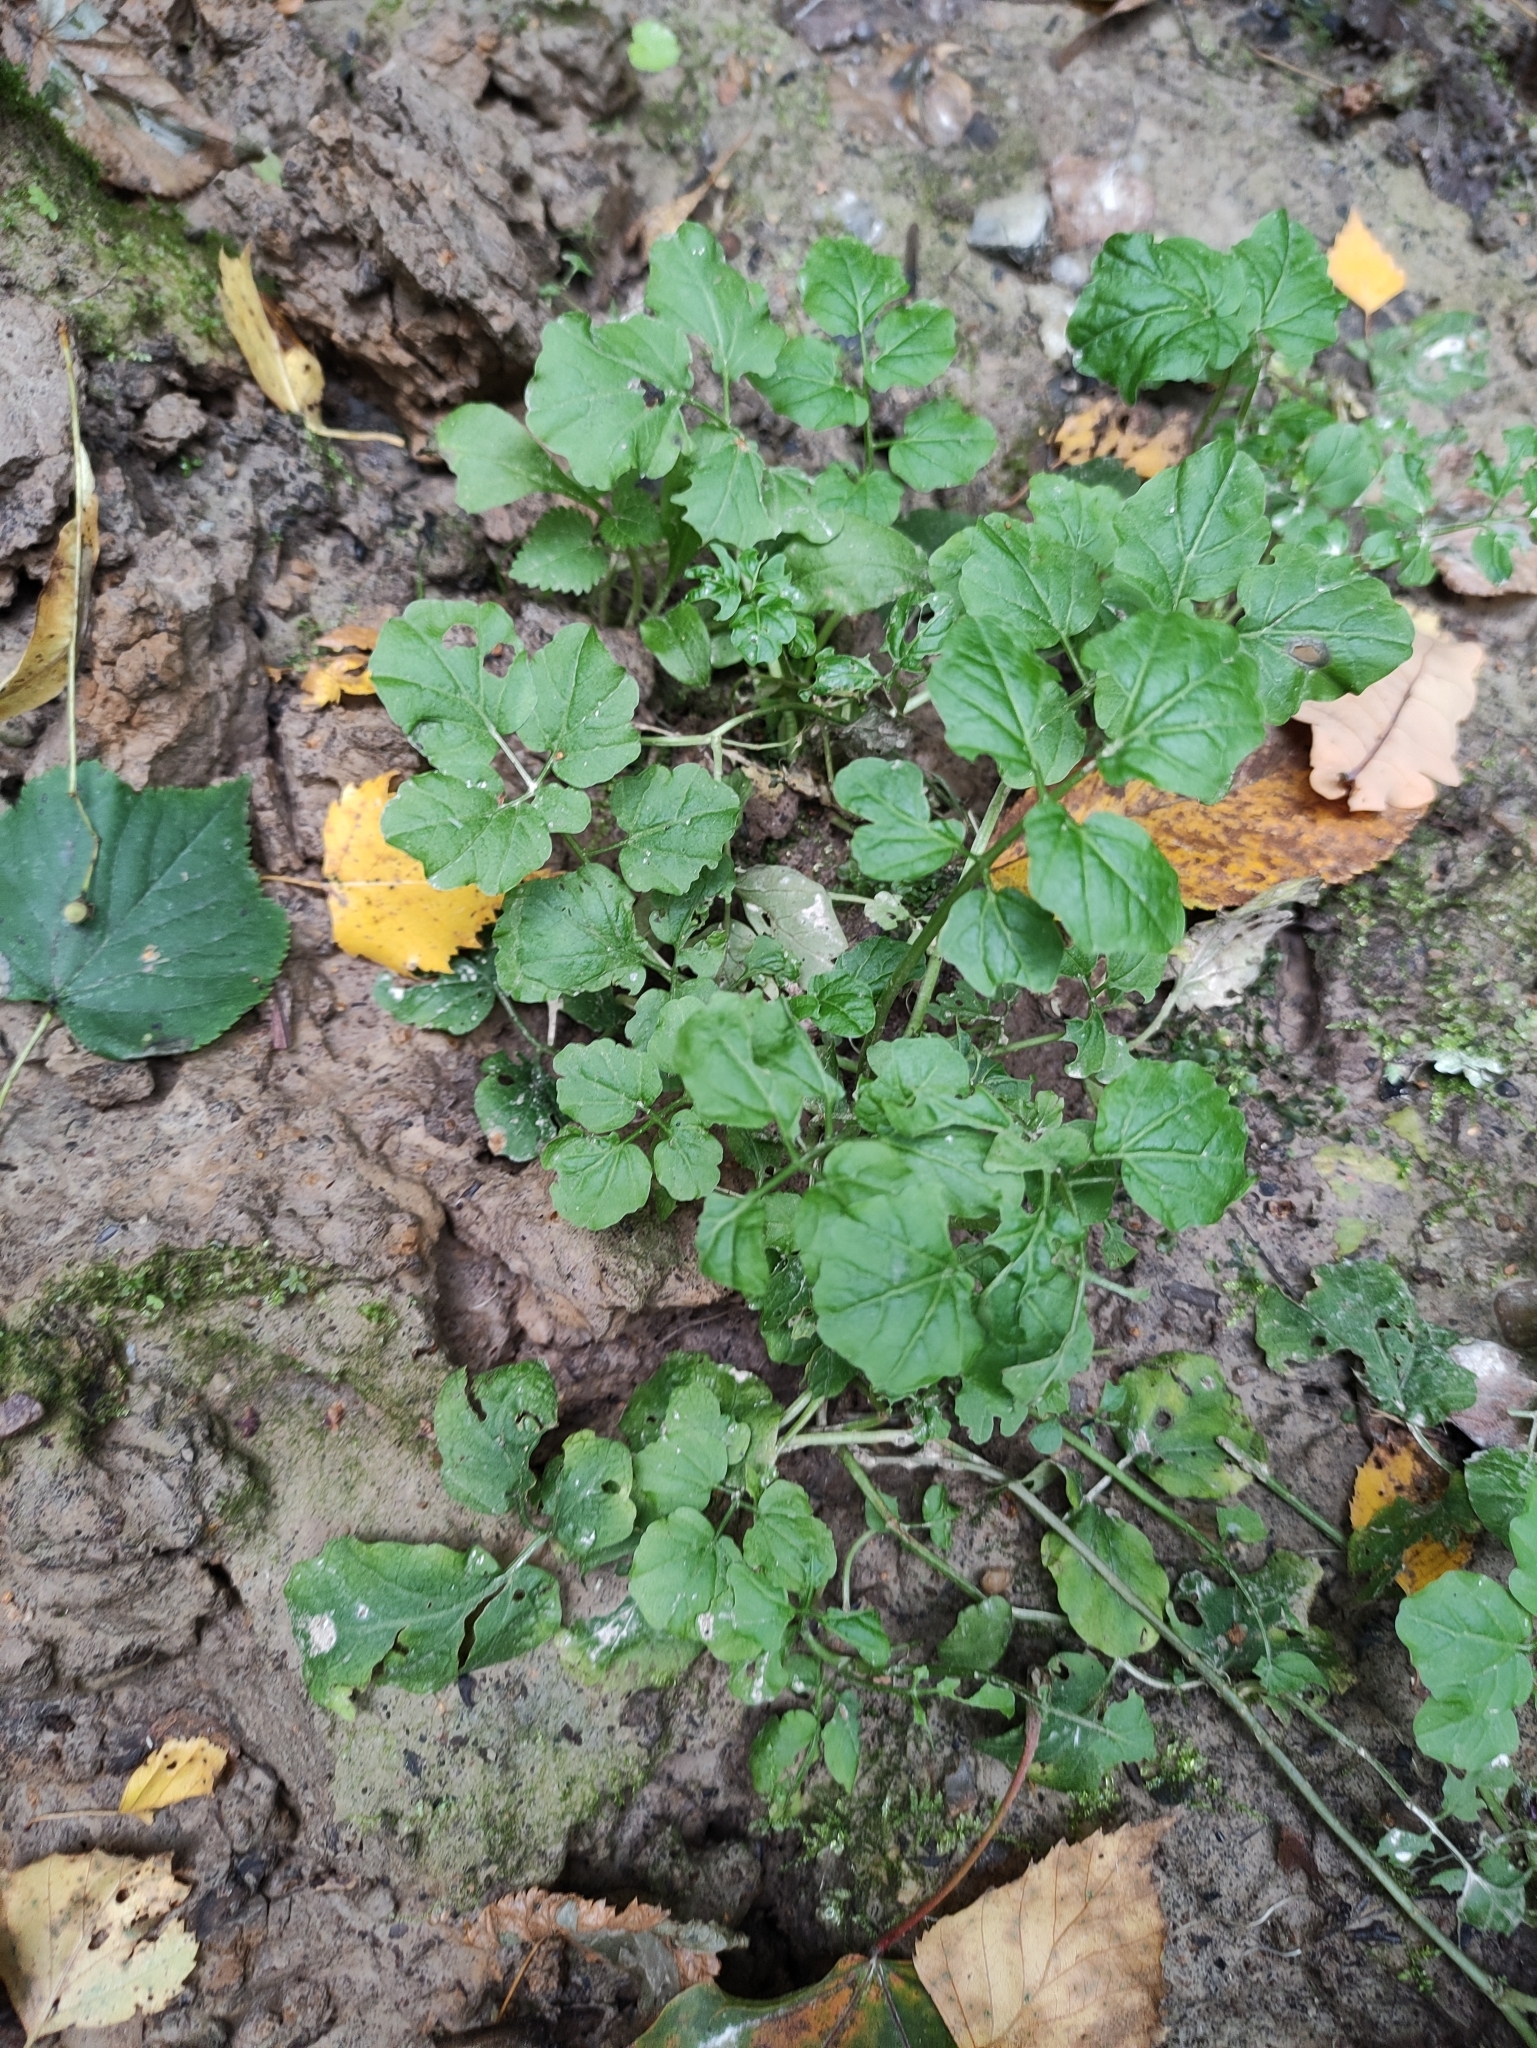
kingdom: Plantae
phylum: Tracheophyta
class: Magnoliopsida
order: Brassicales
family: Brassicaceae
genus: Cardamine
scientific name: Cardamine amara
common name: Large bitter-cress
